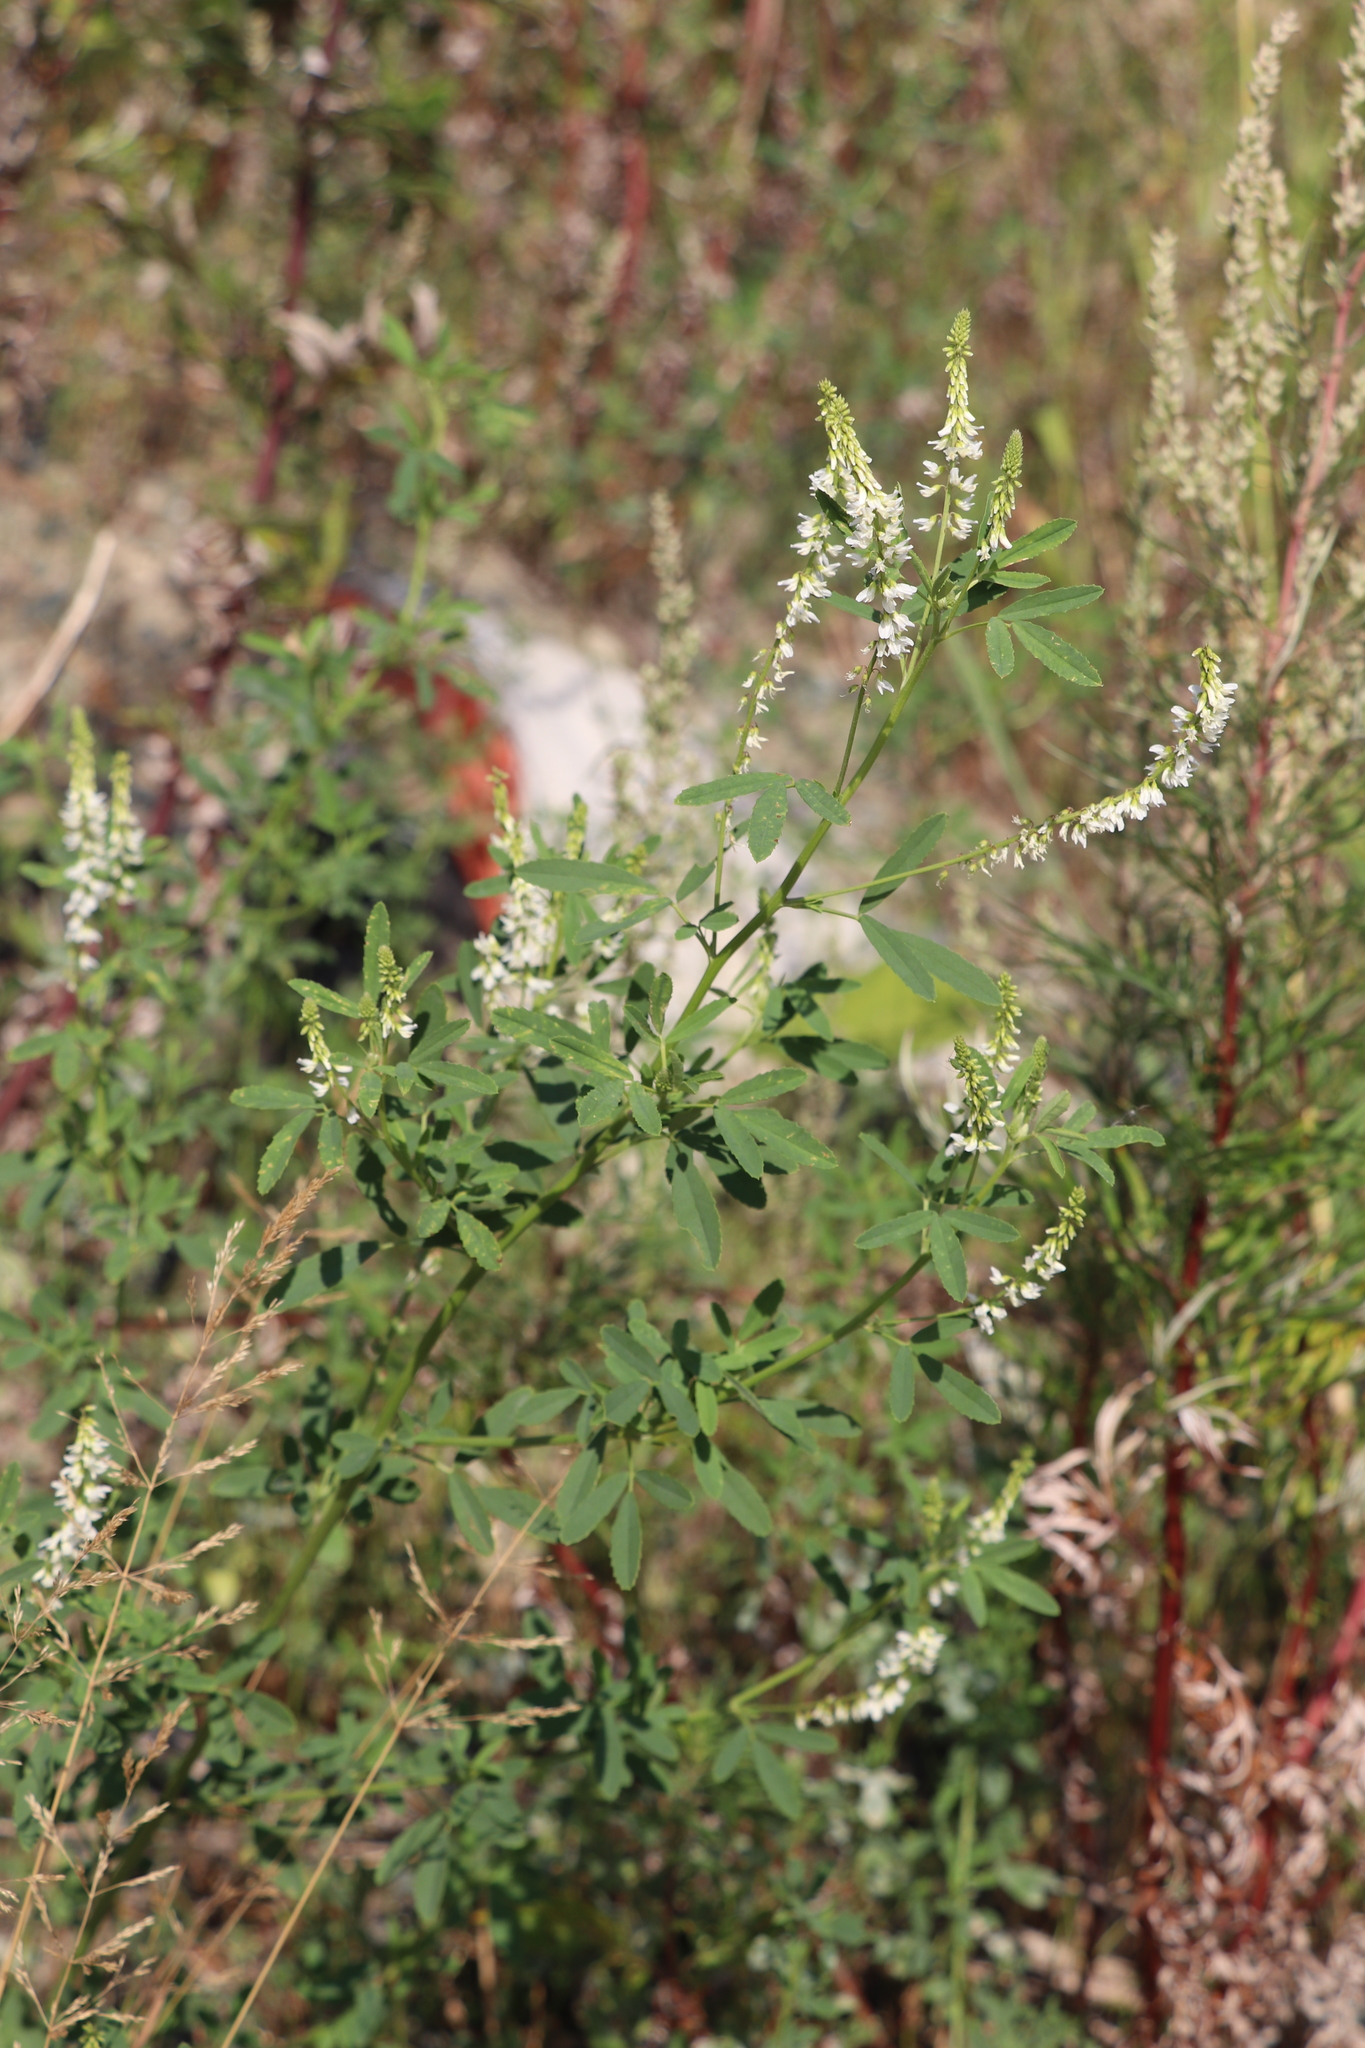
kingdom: Plantae
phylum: Tracheophyta
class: Magnoliopsida
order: Fabales
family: Fabaceae
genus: Melilotus
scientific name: Melilotus albus
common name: White melilot
